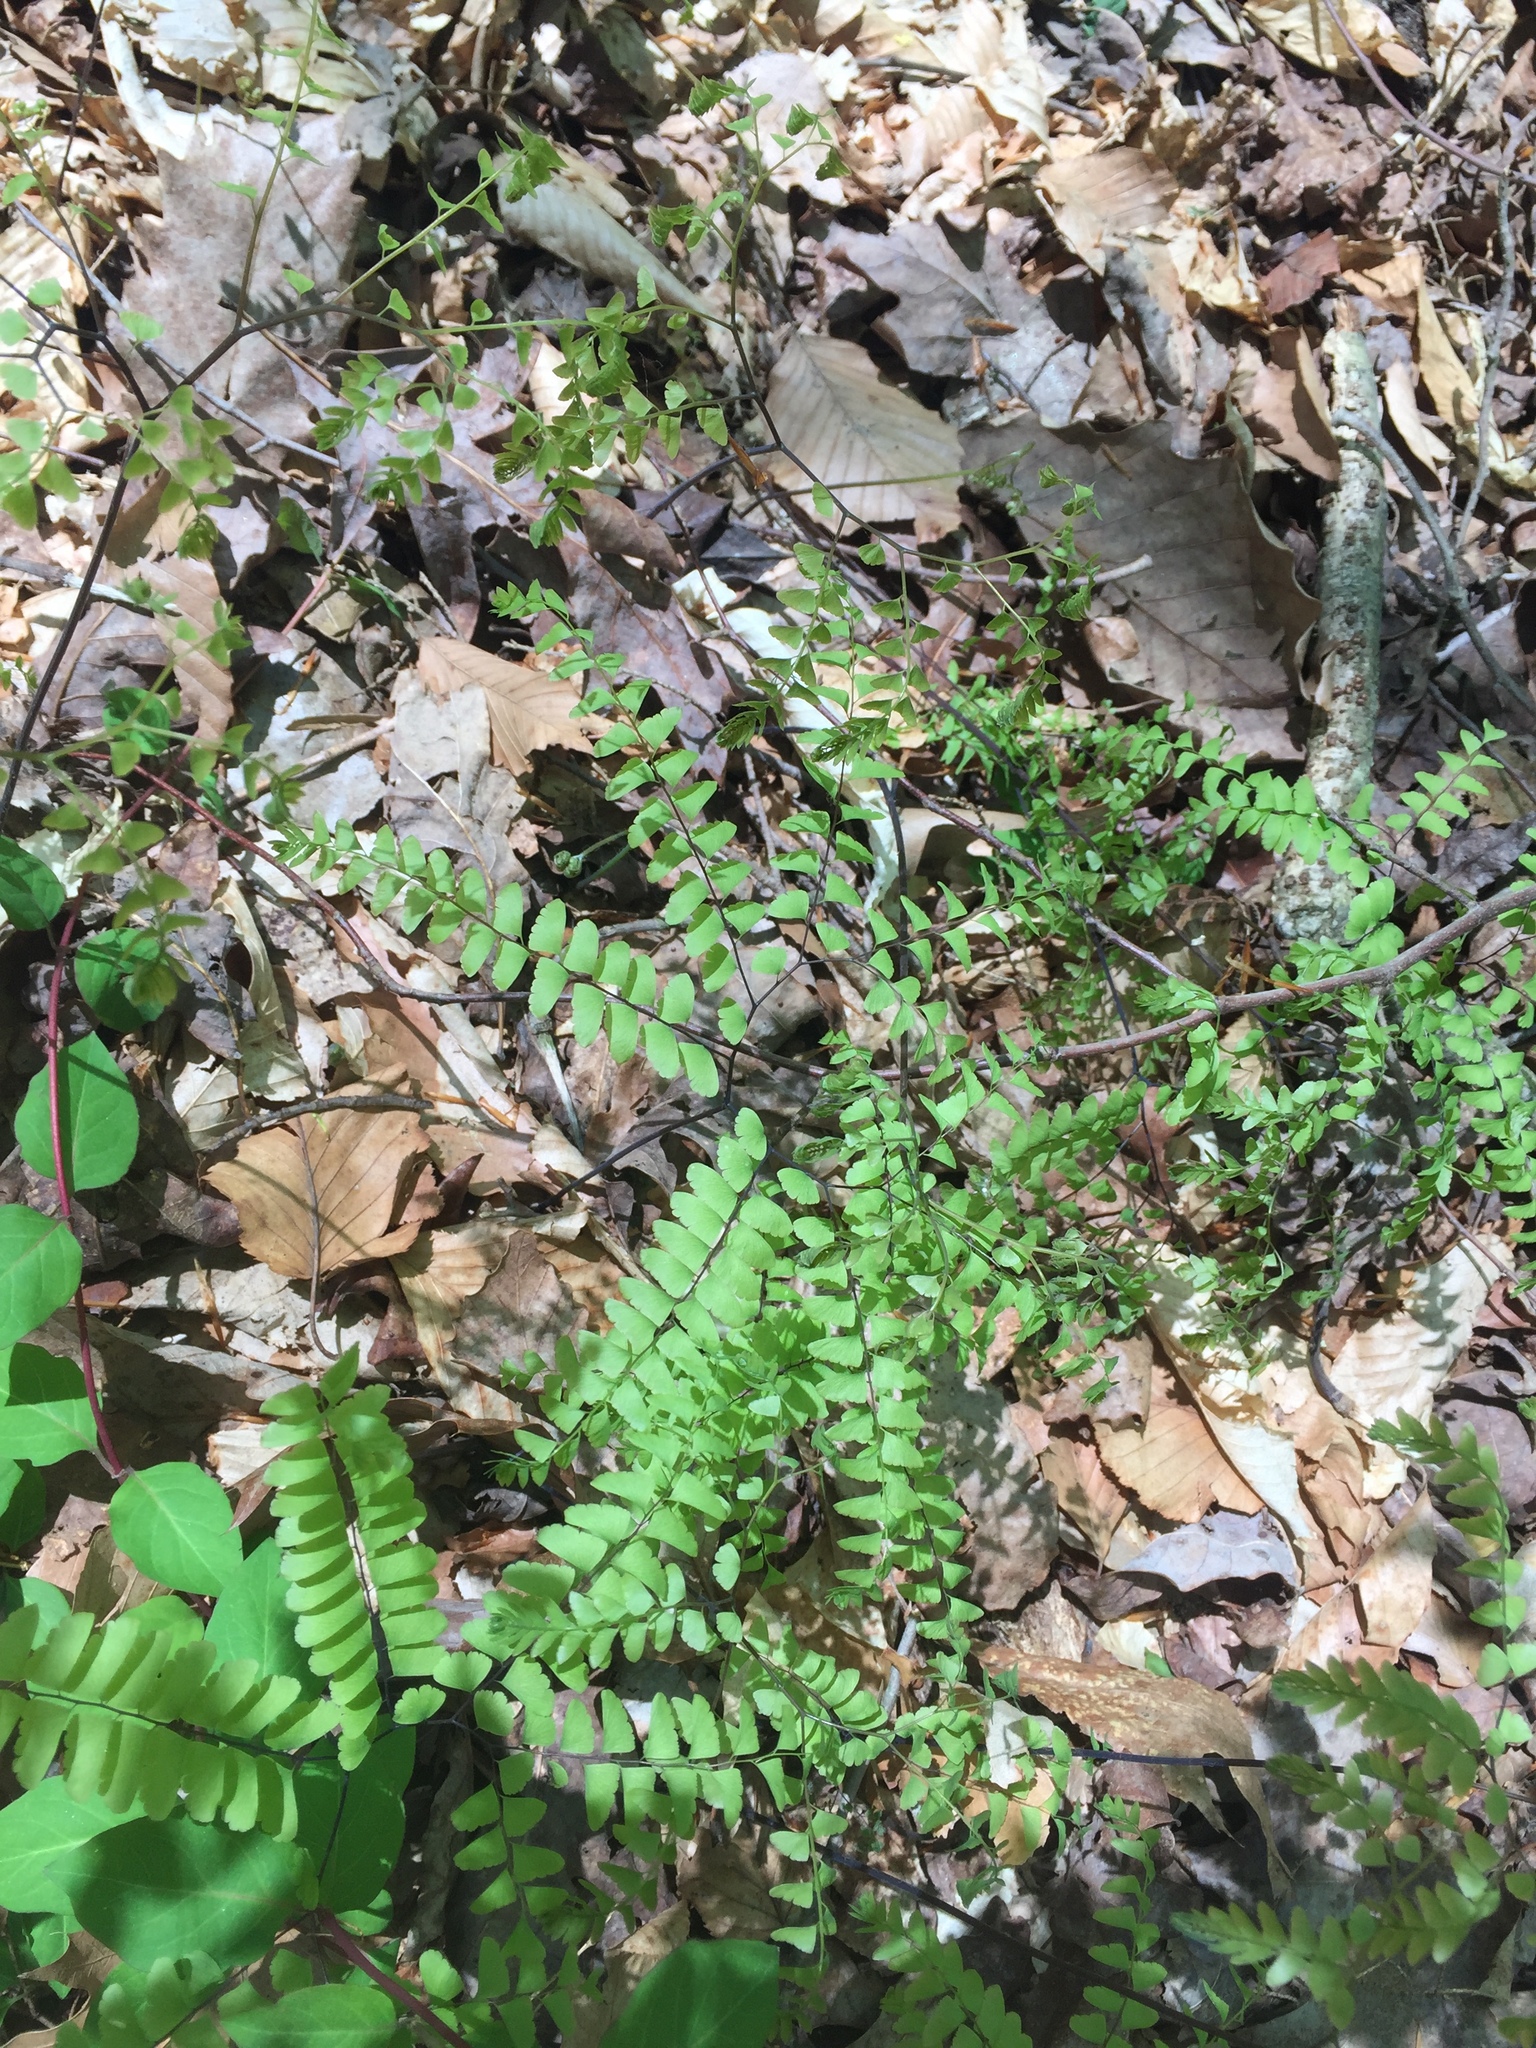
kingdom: Plantae
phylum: Tracheophyta
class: Polypodiopsida
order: Polypodiales
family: Pteridaceae
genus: Adiantum
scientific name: Adiantum pedatum
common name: Five-finger fern
